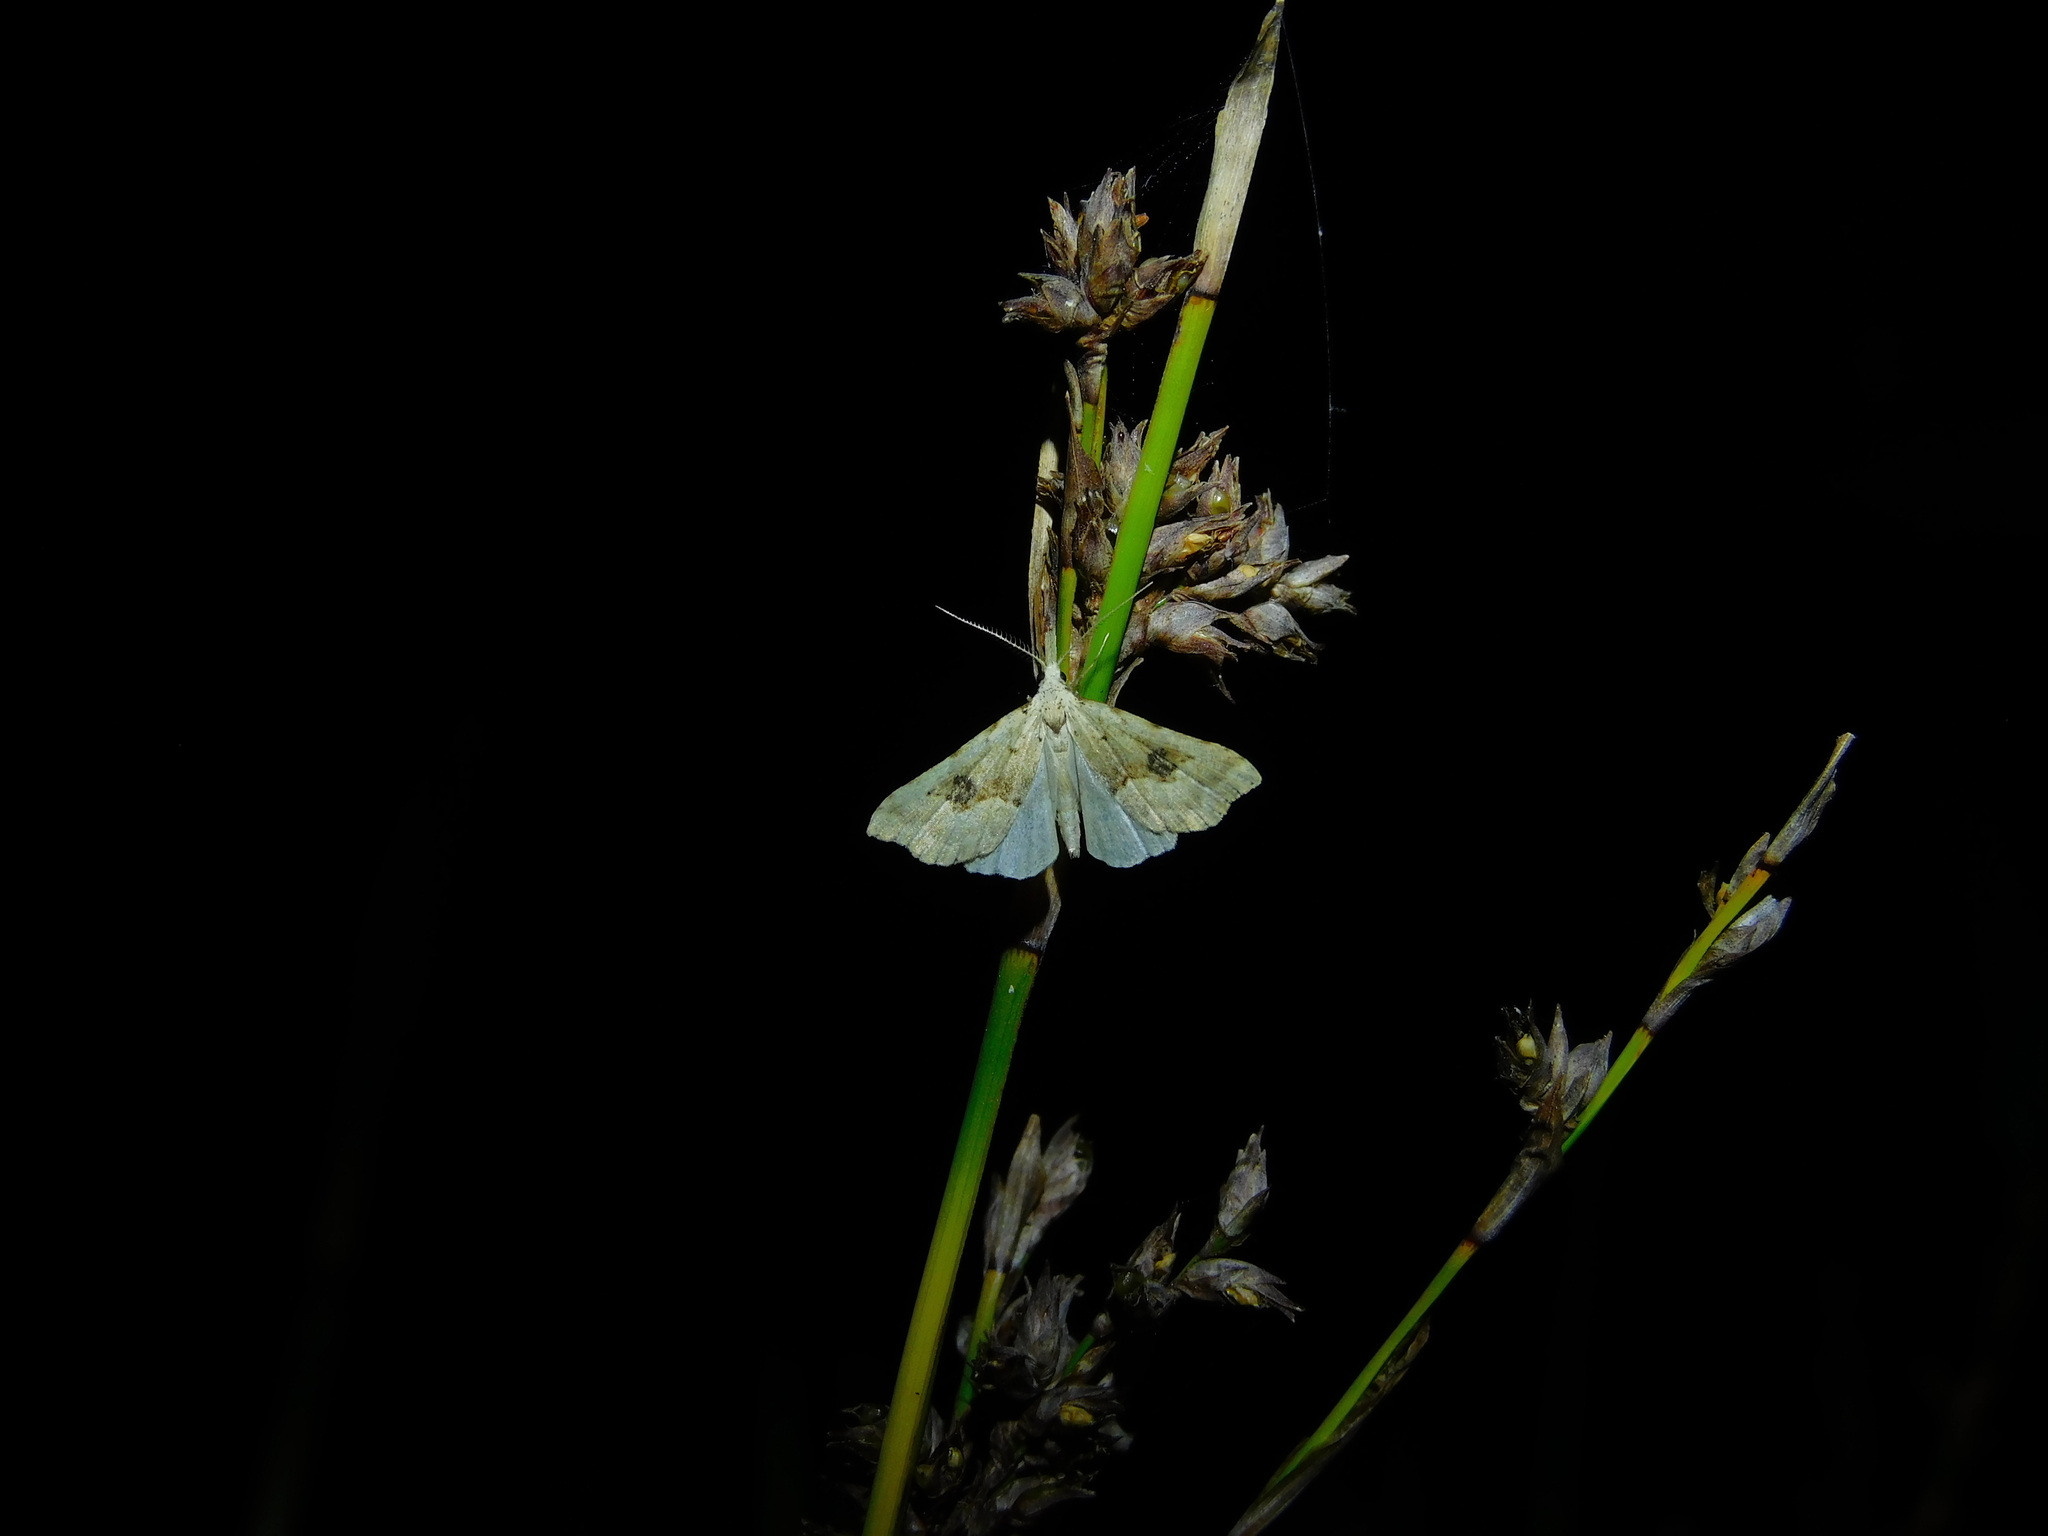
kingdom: Animalia
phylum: Arthropoda
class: Insecta
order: Lepidoptera
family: Erebidae
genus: Trigonistis
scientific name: Trigonistis asthenopa
